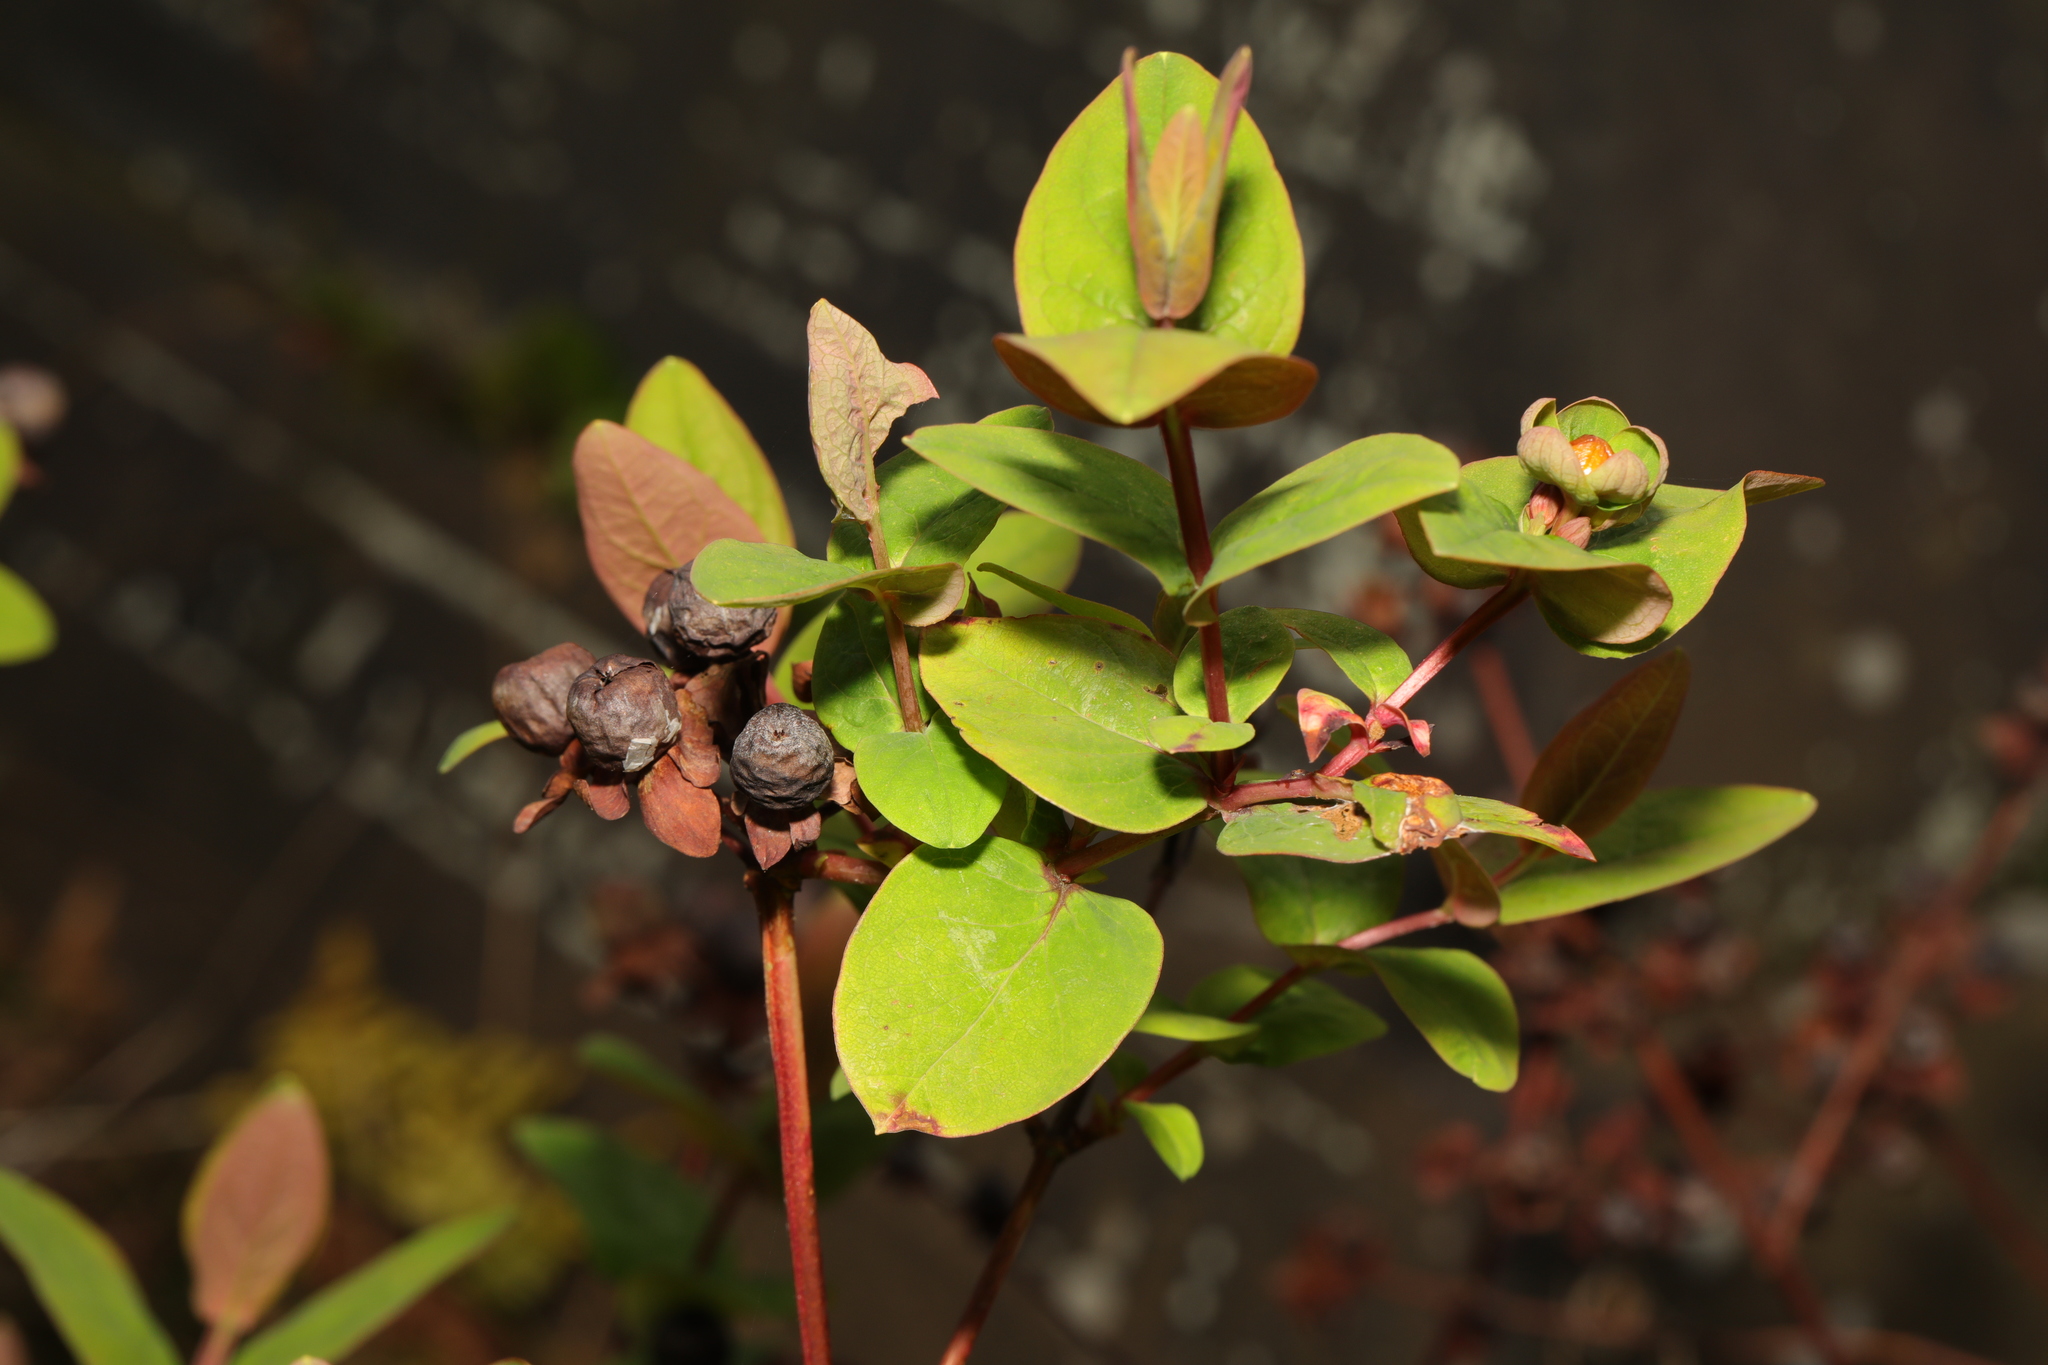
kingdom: Plantae
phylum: Tracheophyta
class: Magnoliopsida
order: Malpighiales
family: Hypericaceae
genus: Hypericum
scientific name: Hypericum androsaemum
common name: Sweet-amber
